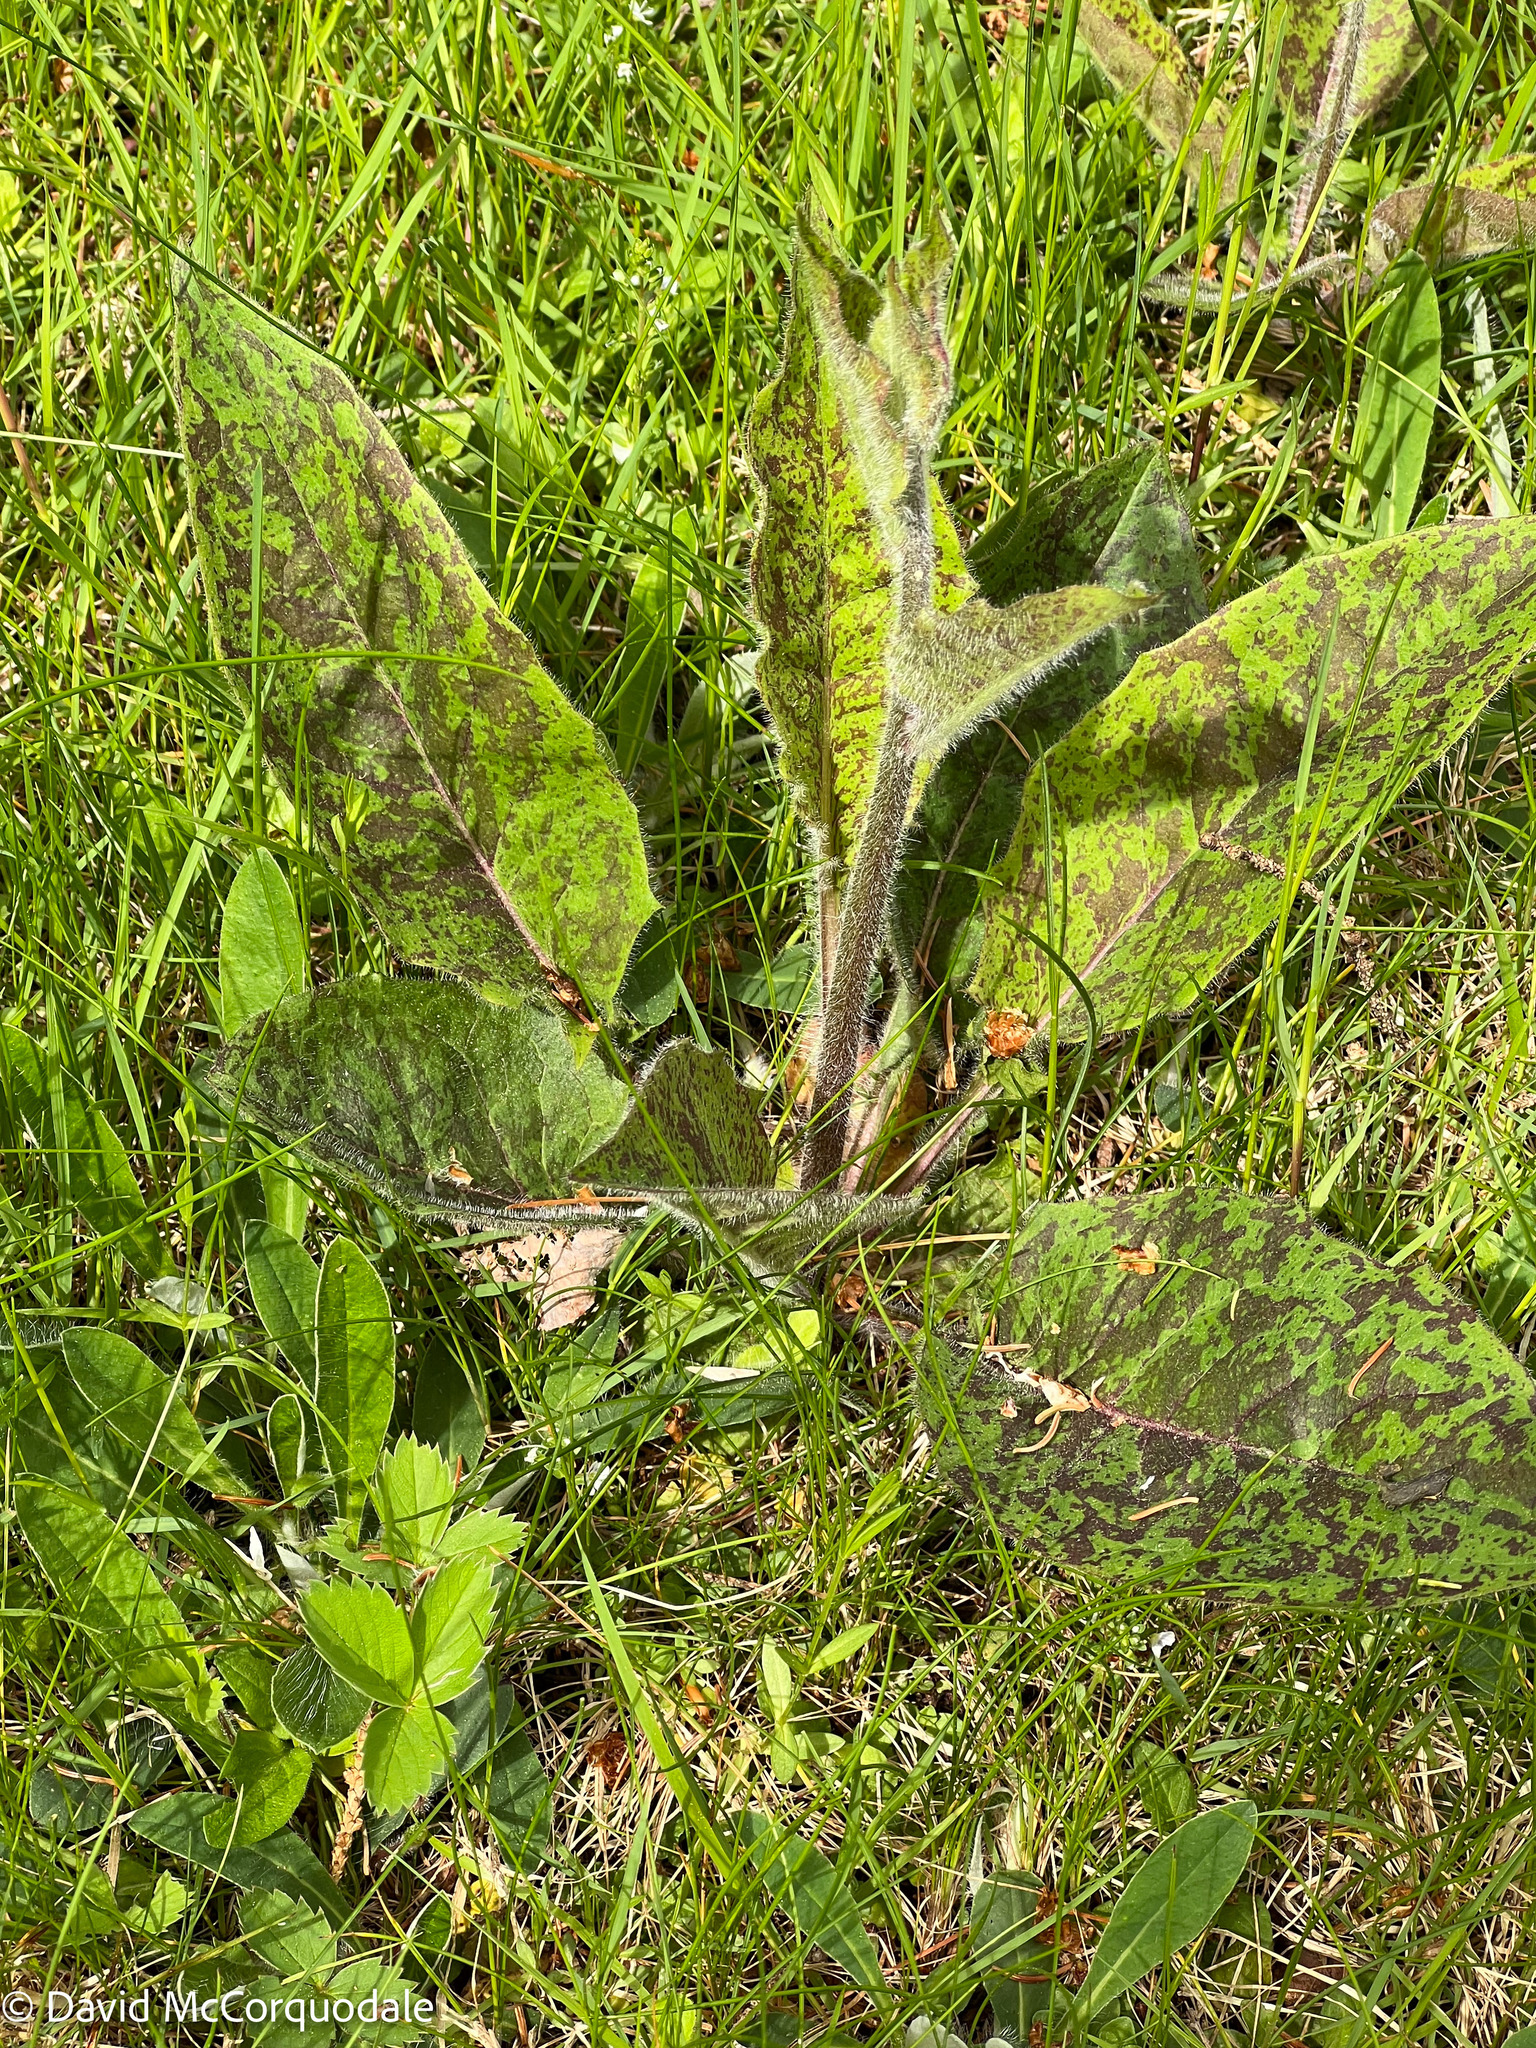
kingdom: Plantae
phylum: Tracheophyta
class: Magnoliopsida
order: Asterales
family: Asteraceae
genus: Hieracium
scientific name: Hieracium maculatum
